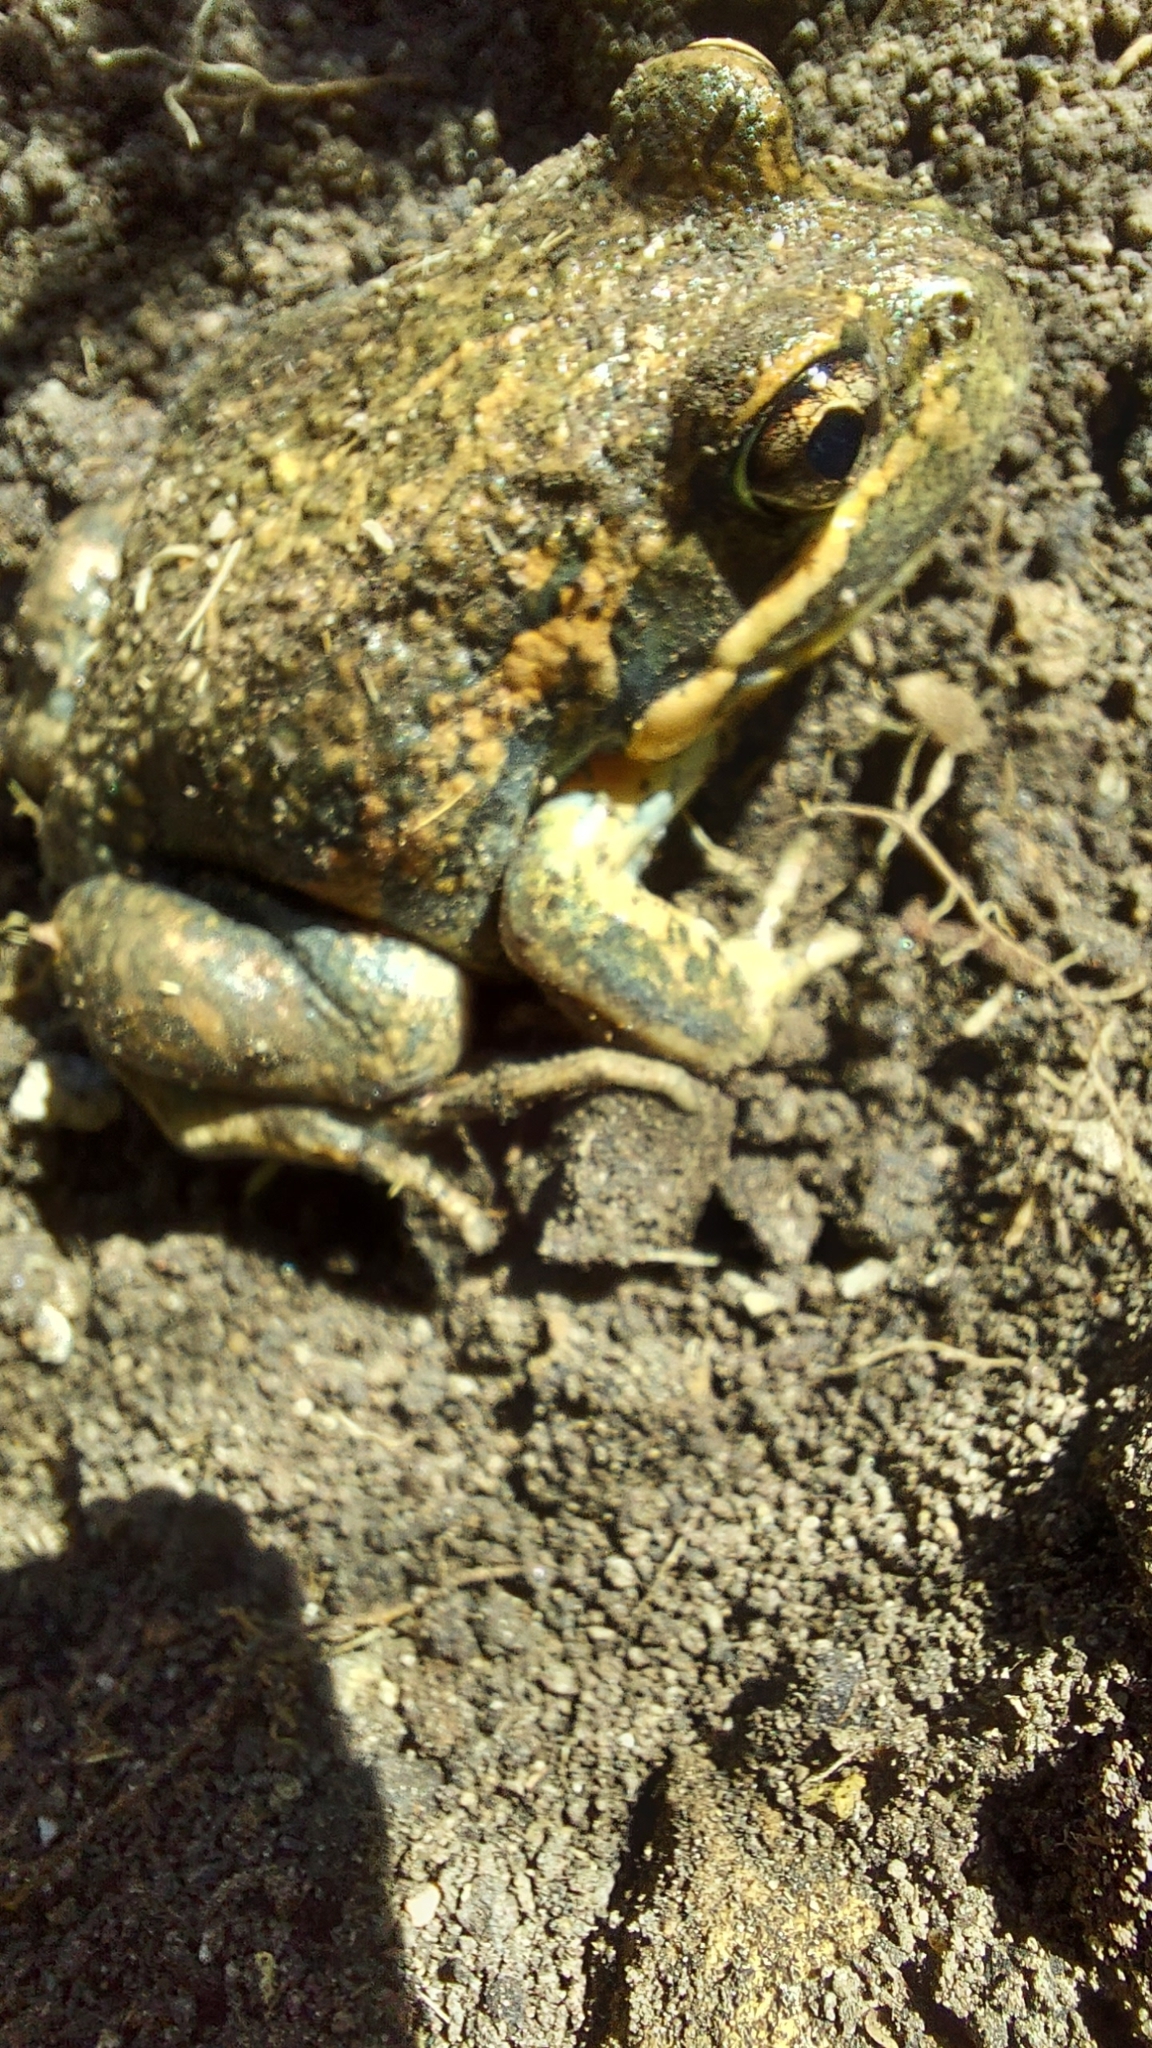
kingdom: Animalia
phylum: Chordata
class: Amphibia
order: Anura
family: Limnodynastidae
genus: Limnodynastes
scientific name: Limnodynastes dumerilii
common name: Banjo frog
